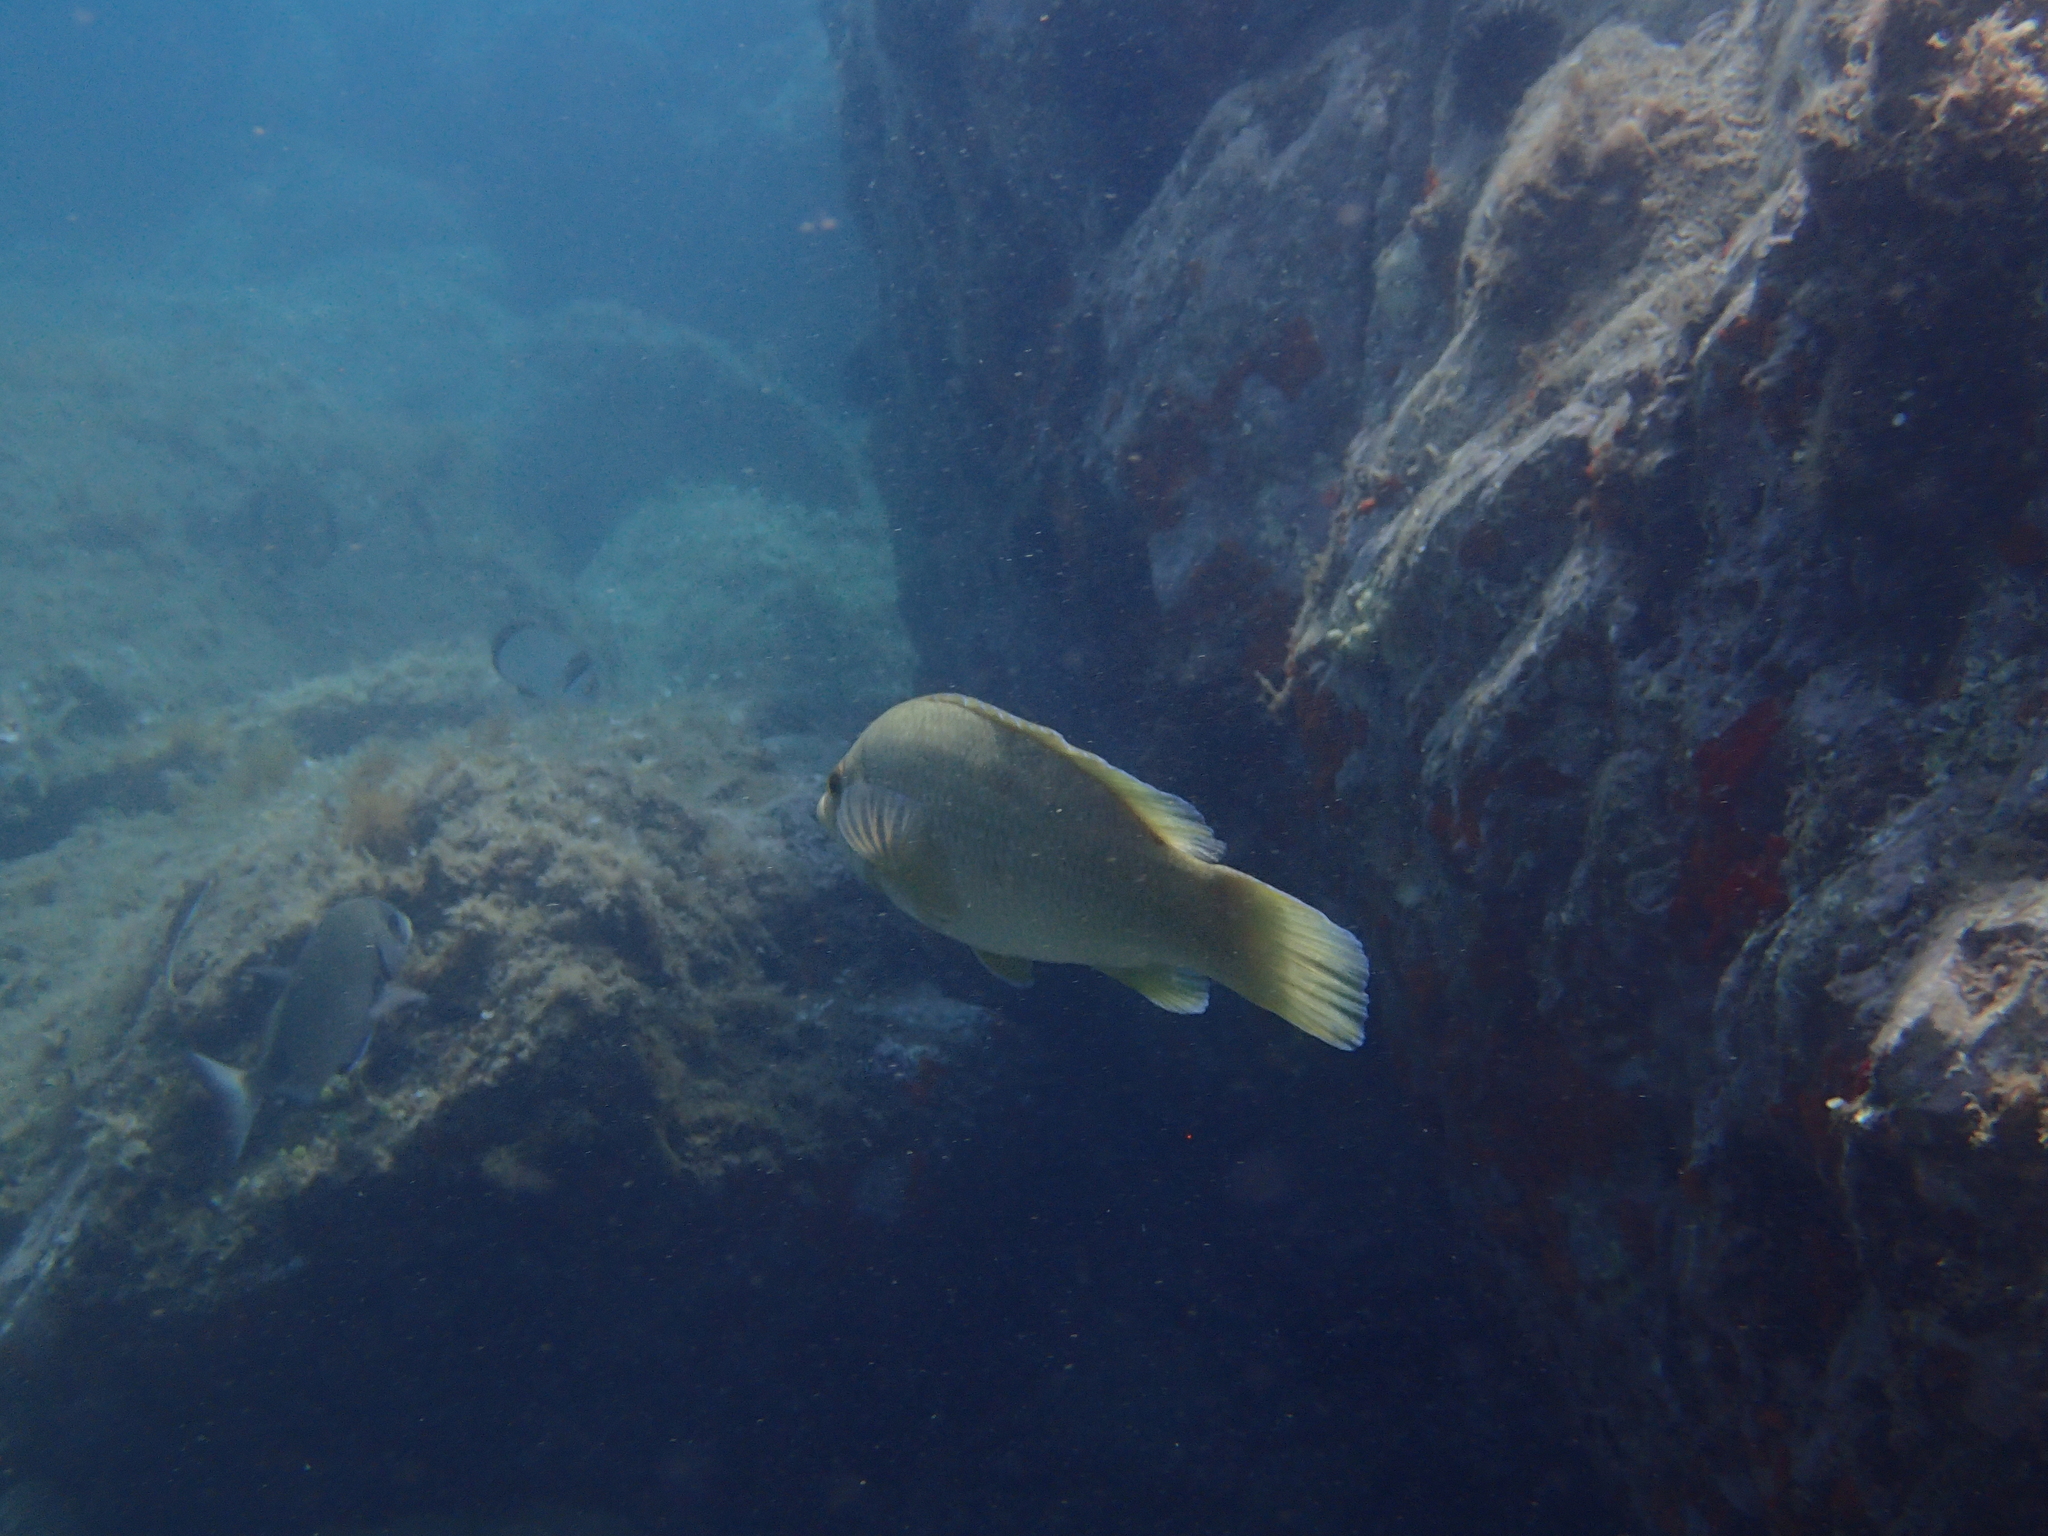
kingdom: Animalia
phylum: Chordata
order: Perciformes
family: Labridae
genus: Labrus
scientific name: Labrus merula
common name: Brown wrasse
